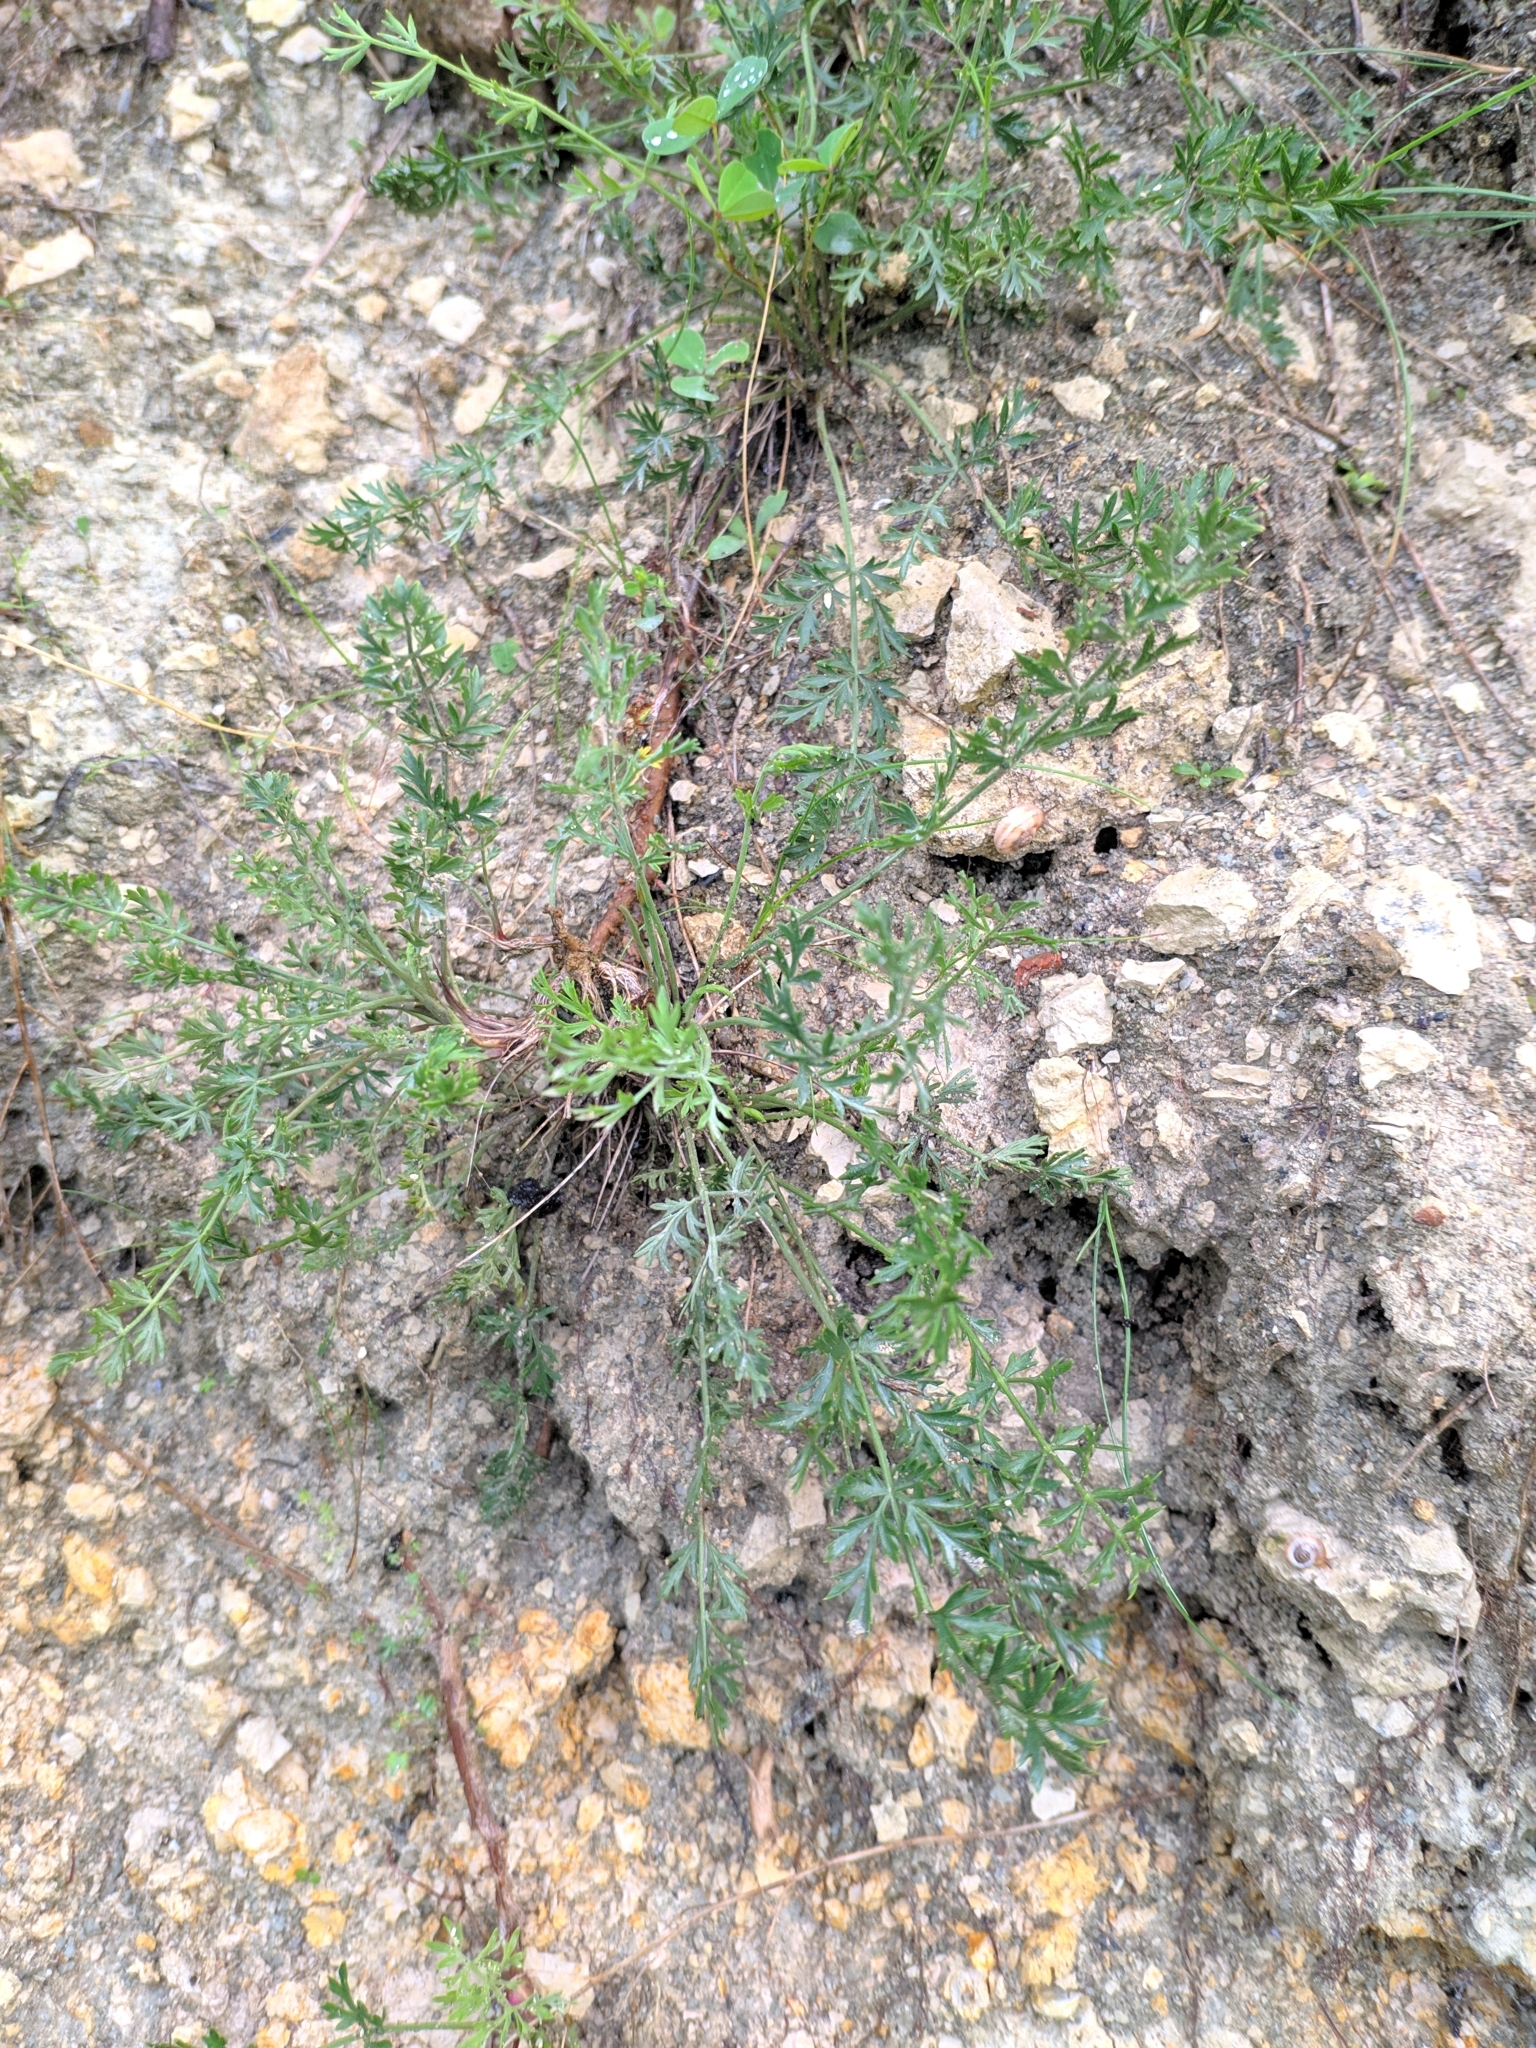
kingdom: Plantae
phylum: Tracheophyta
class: Magnoliopsida
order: Apiales
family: Apiaceae
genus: Pimpinella
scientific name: Pimpinella tragium
